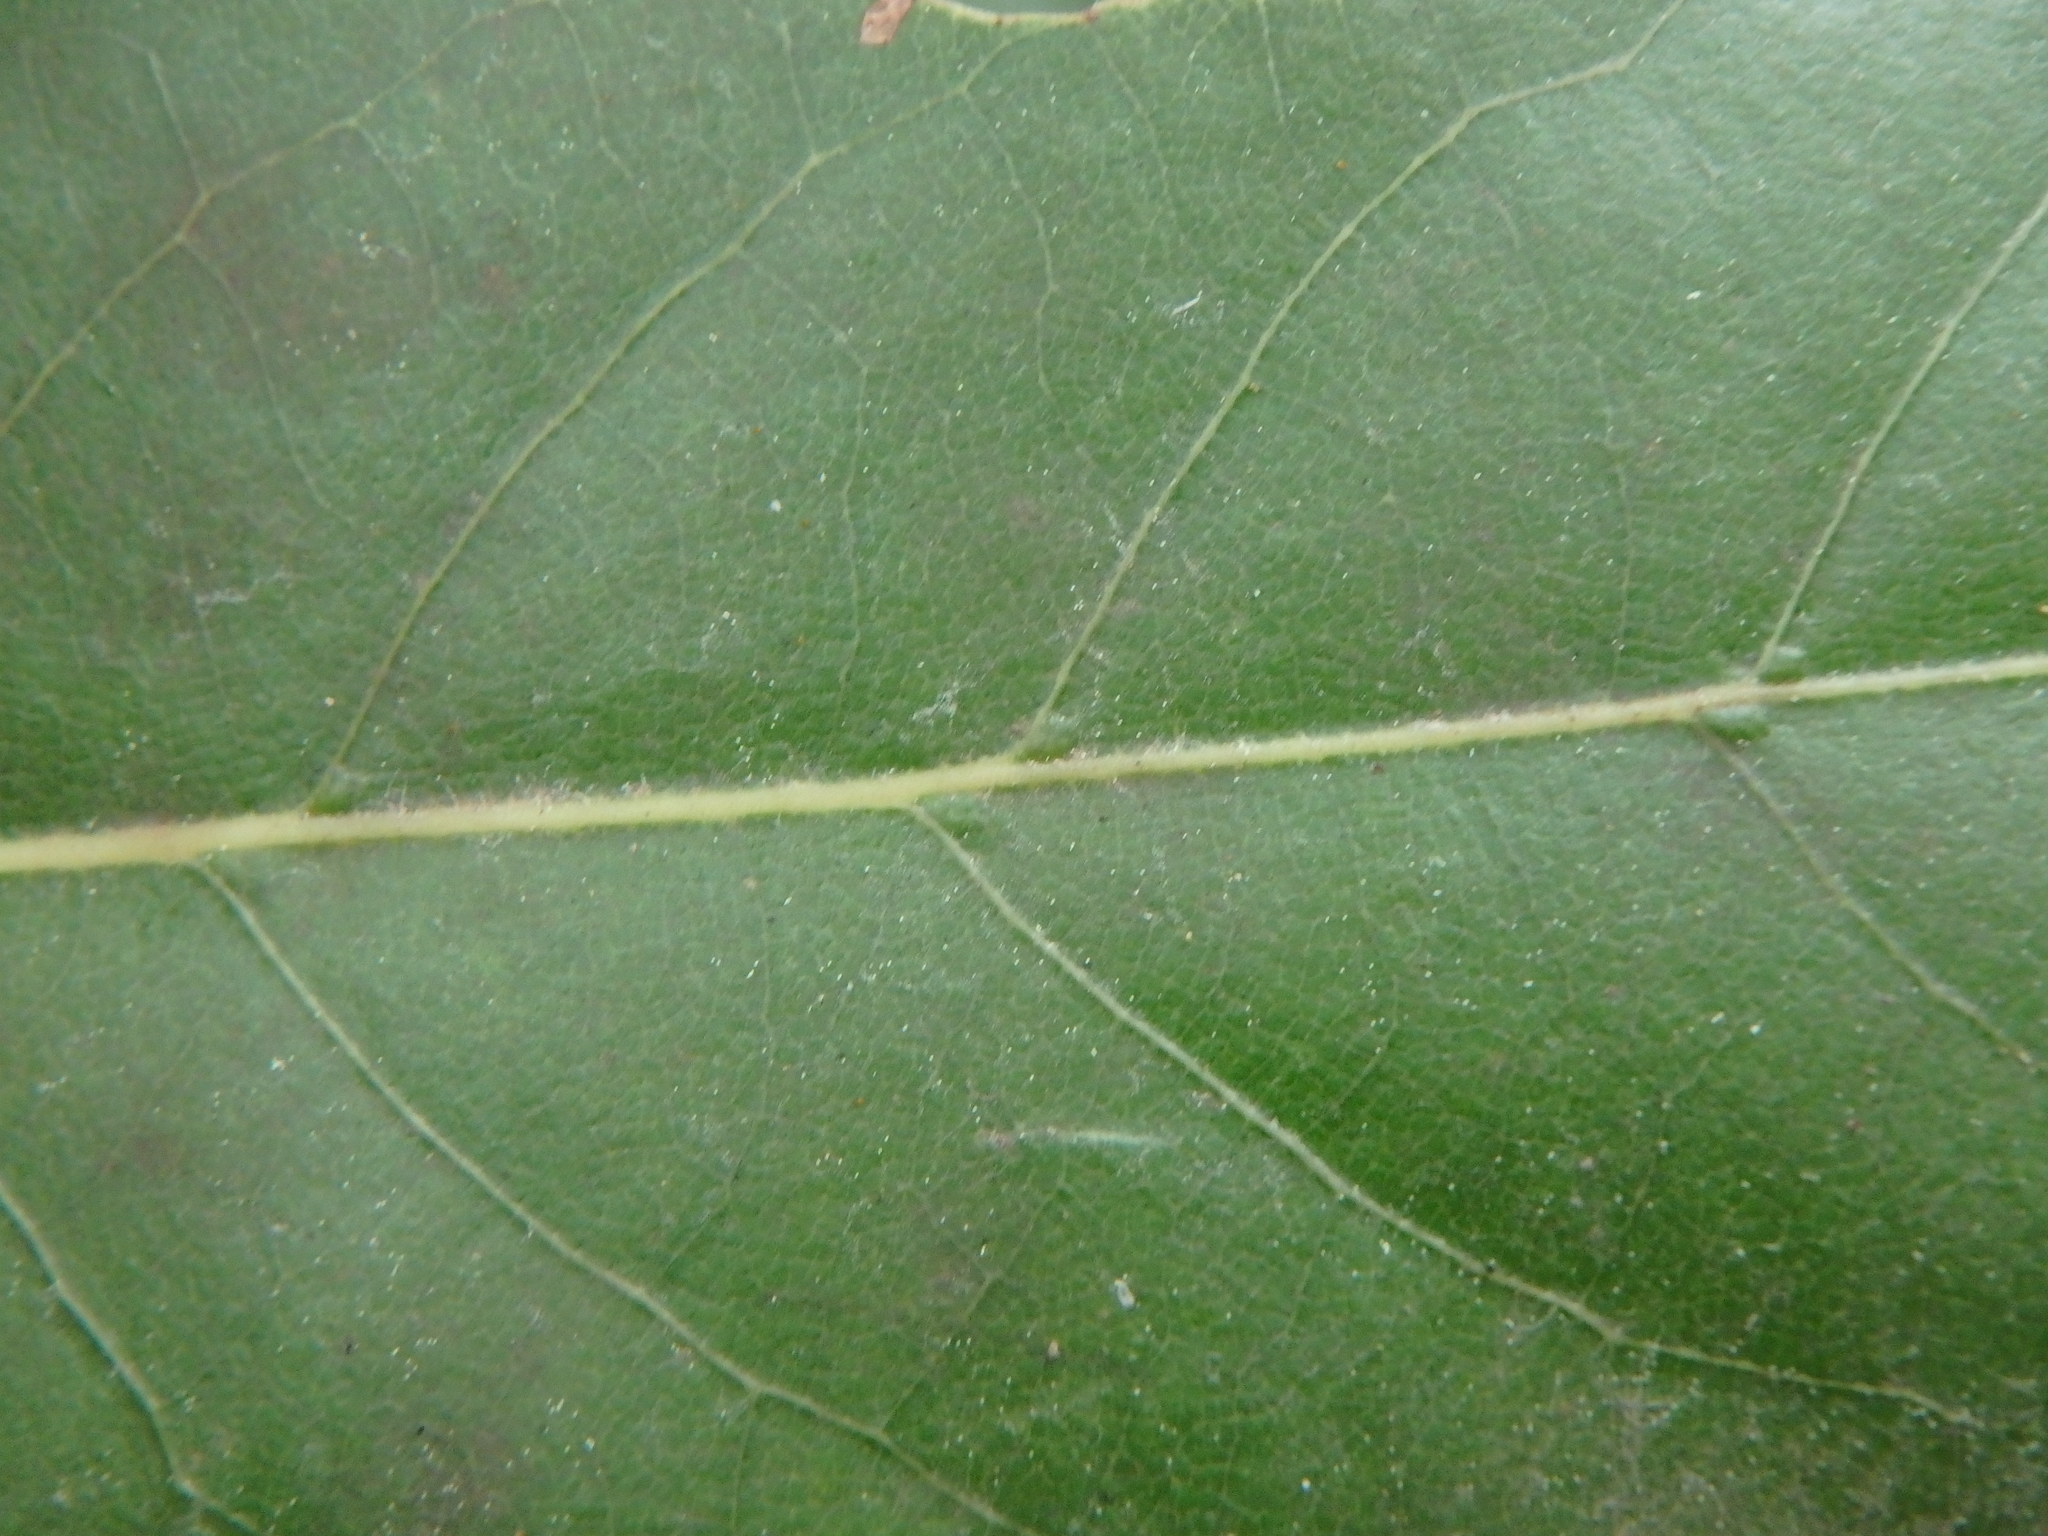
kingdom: Plantae
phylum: Tracheophyta
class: Magnoliopsida
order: Laurales
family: Lauraceae
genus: Laurus
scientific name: Laurus novocanariensis
